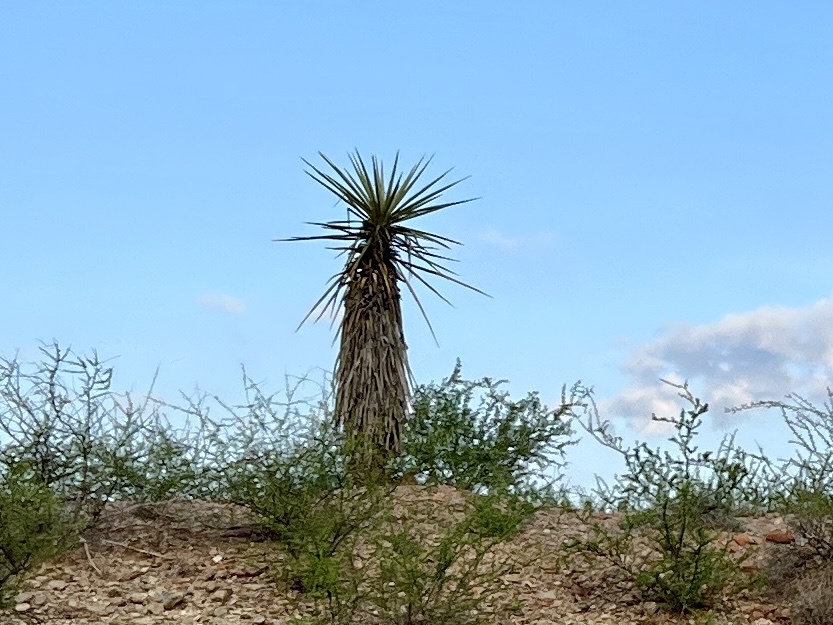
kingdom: Plantae
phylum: Tracheophyta
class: Liliopsida
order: Asparagales
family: Asparagaceae
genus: Yucca
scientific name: Yucca treculiana
